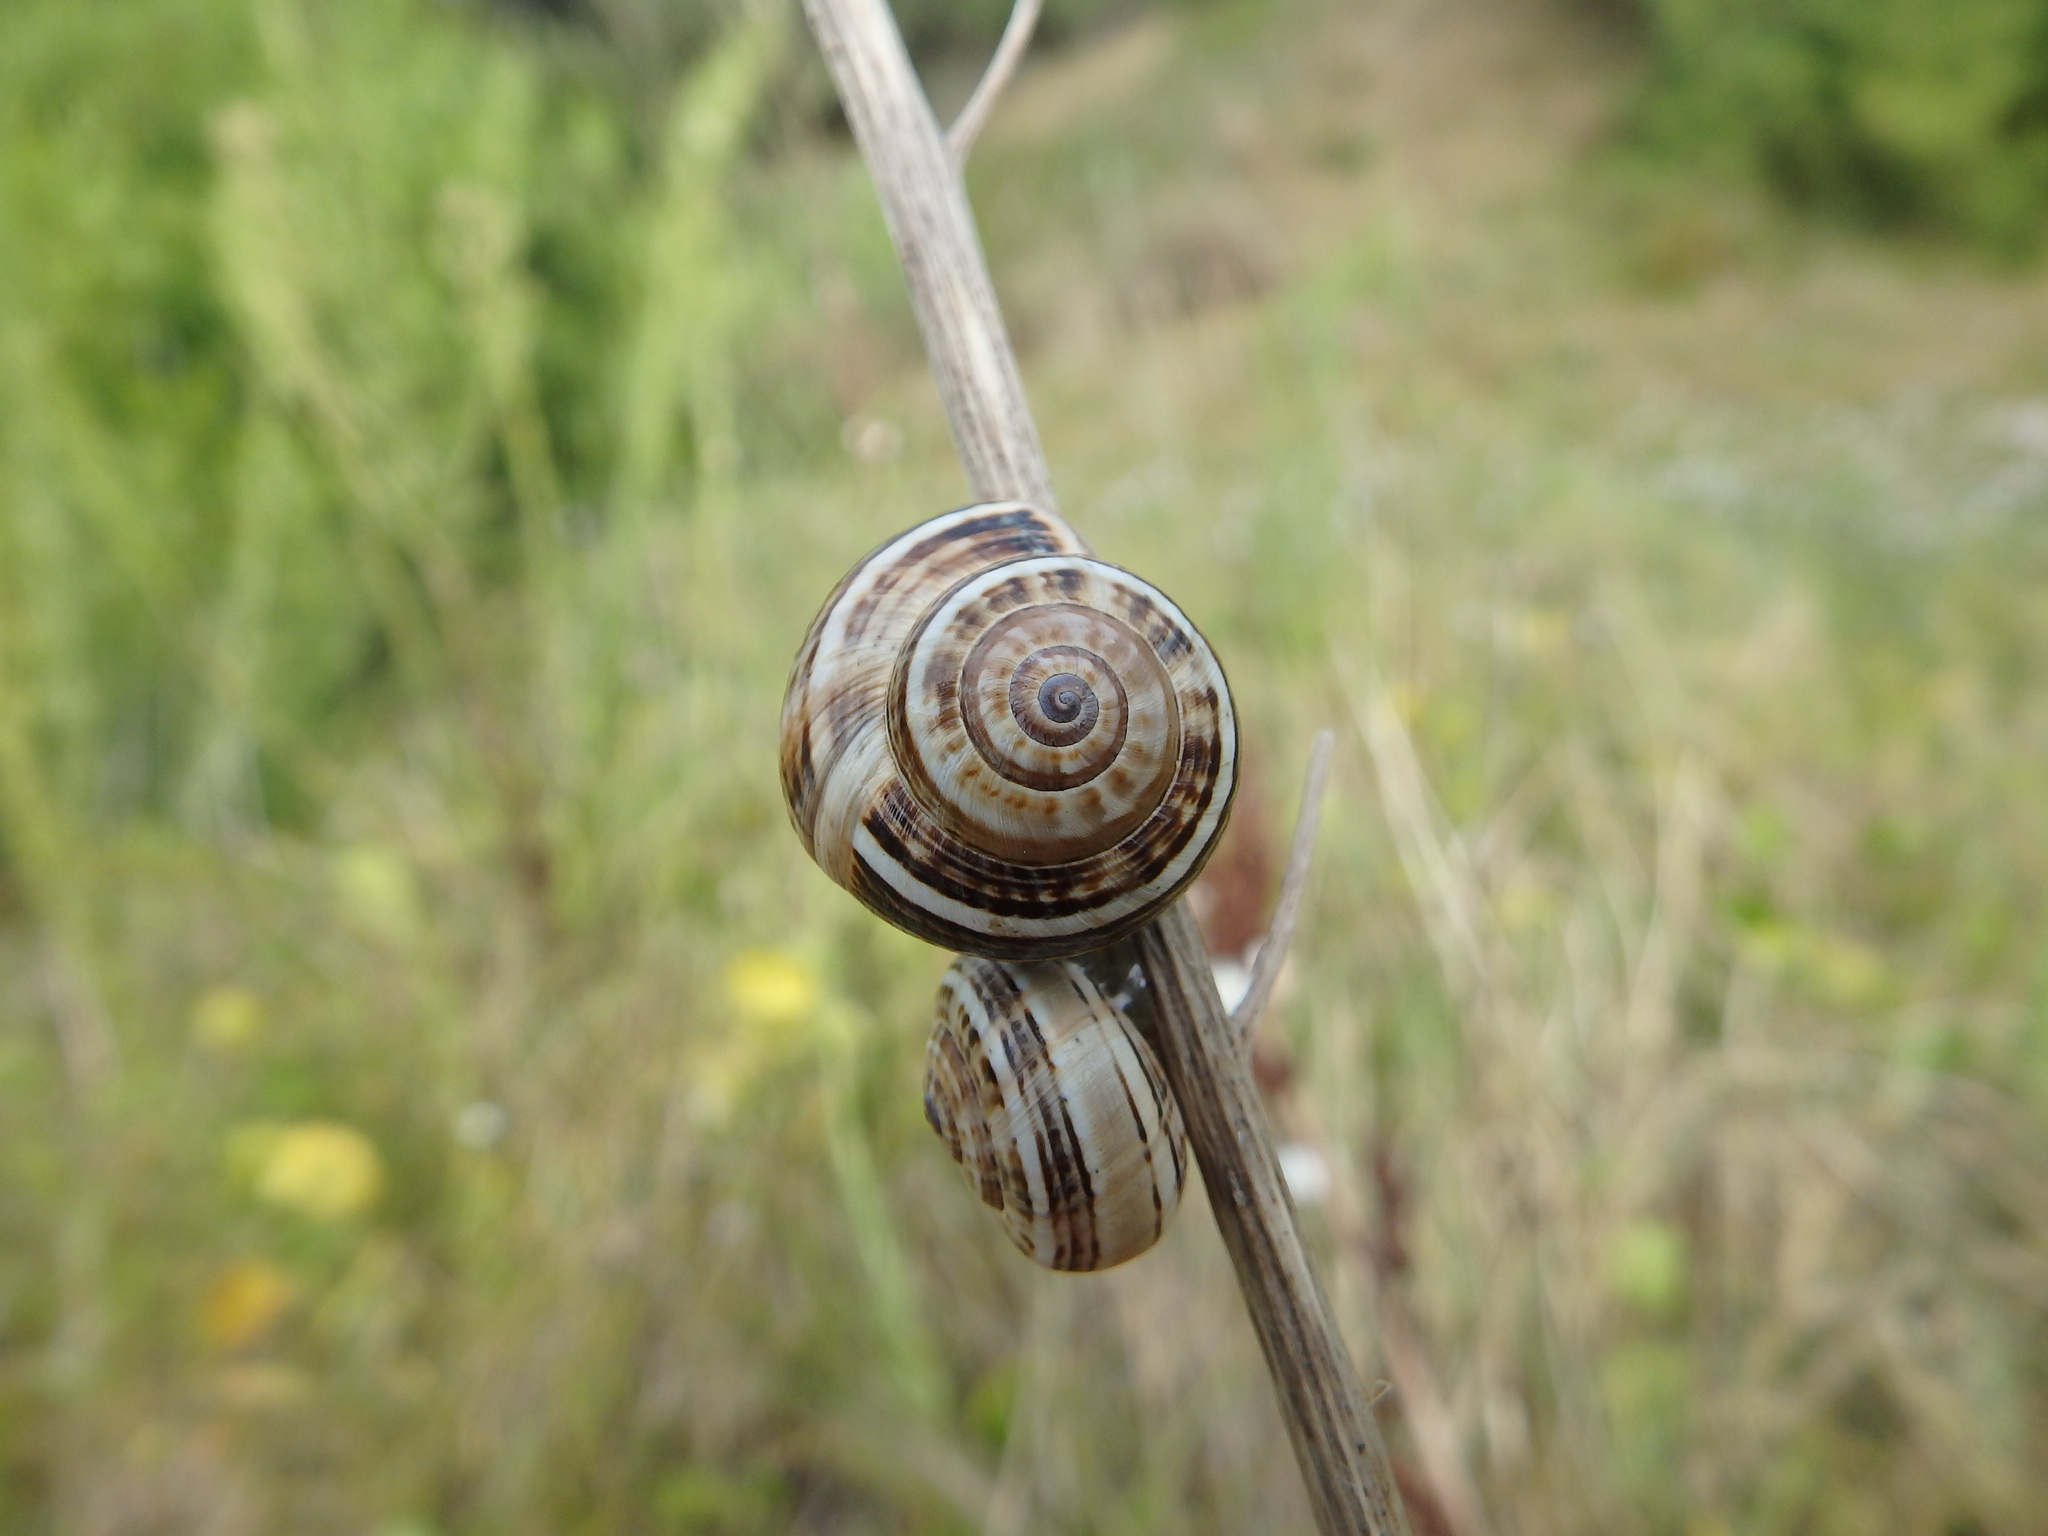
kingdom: Animalia
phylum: Mollusca
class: Gastropoda
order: Stylommatophora
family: Helicidae
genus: Theba
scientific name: Theba pisana
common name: White snail
